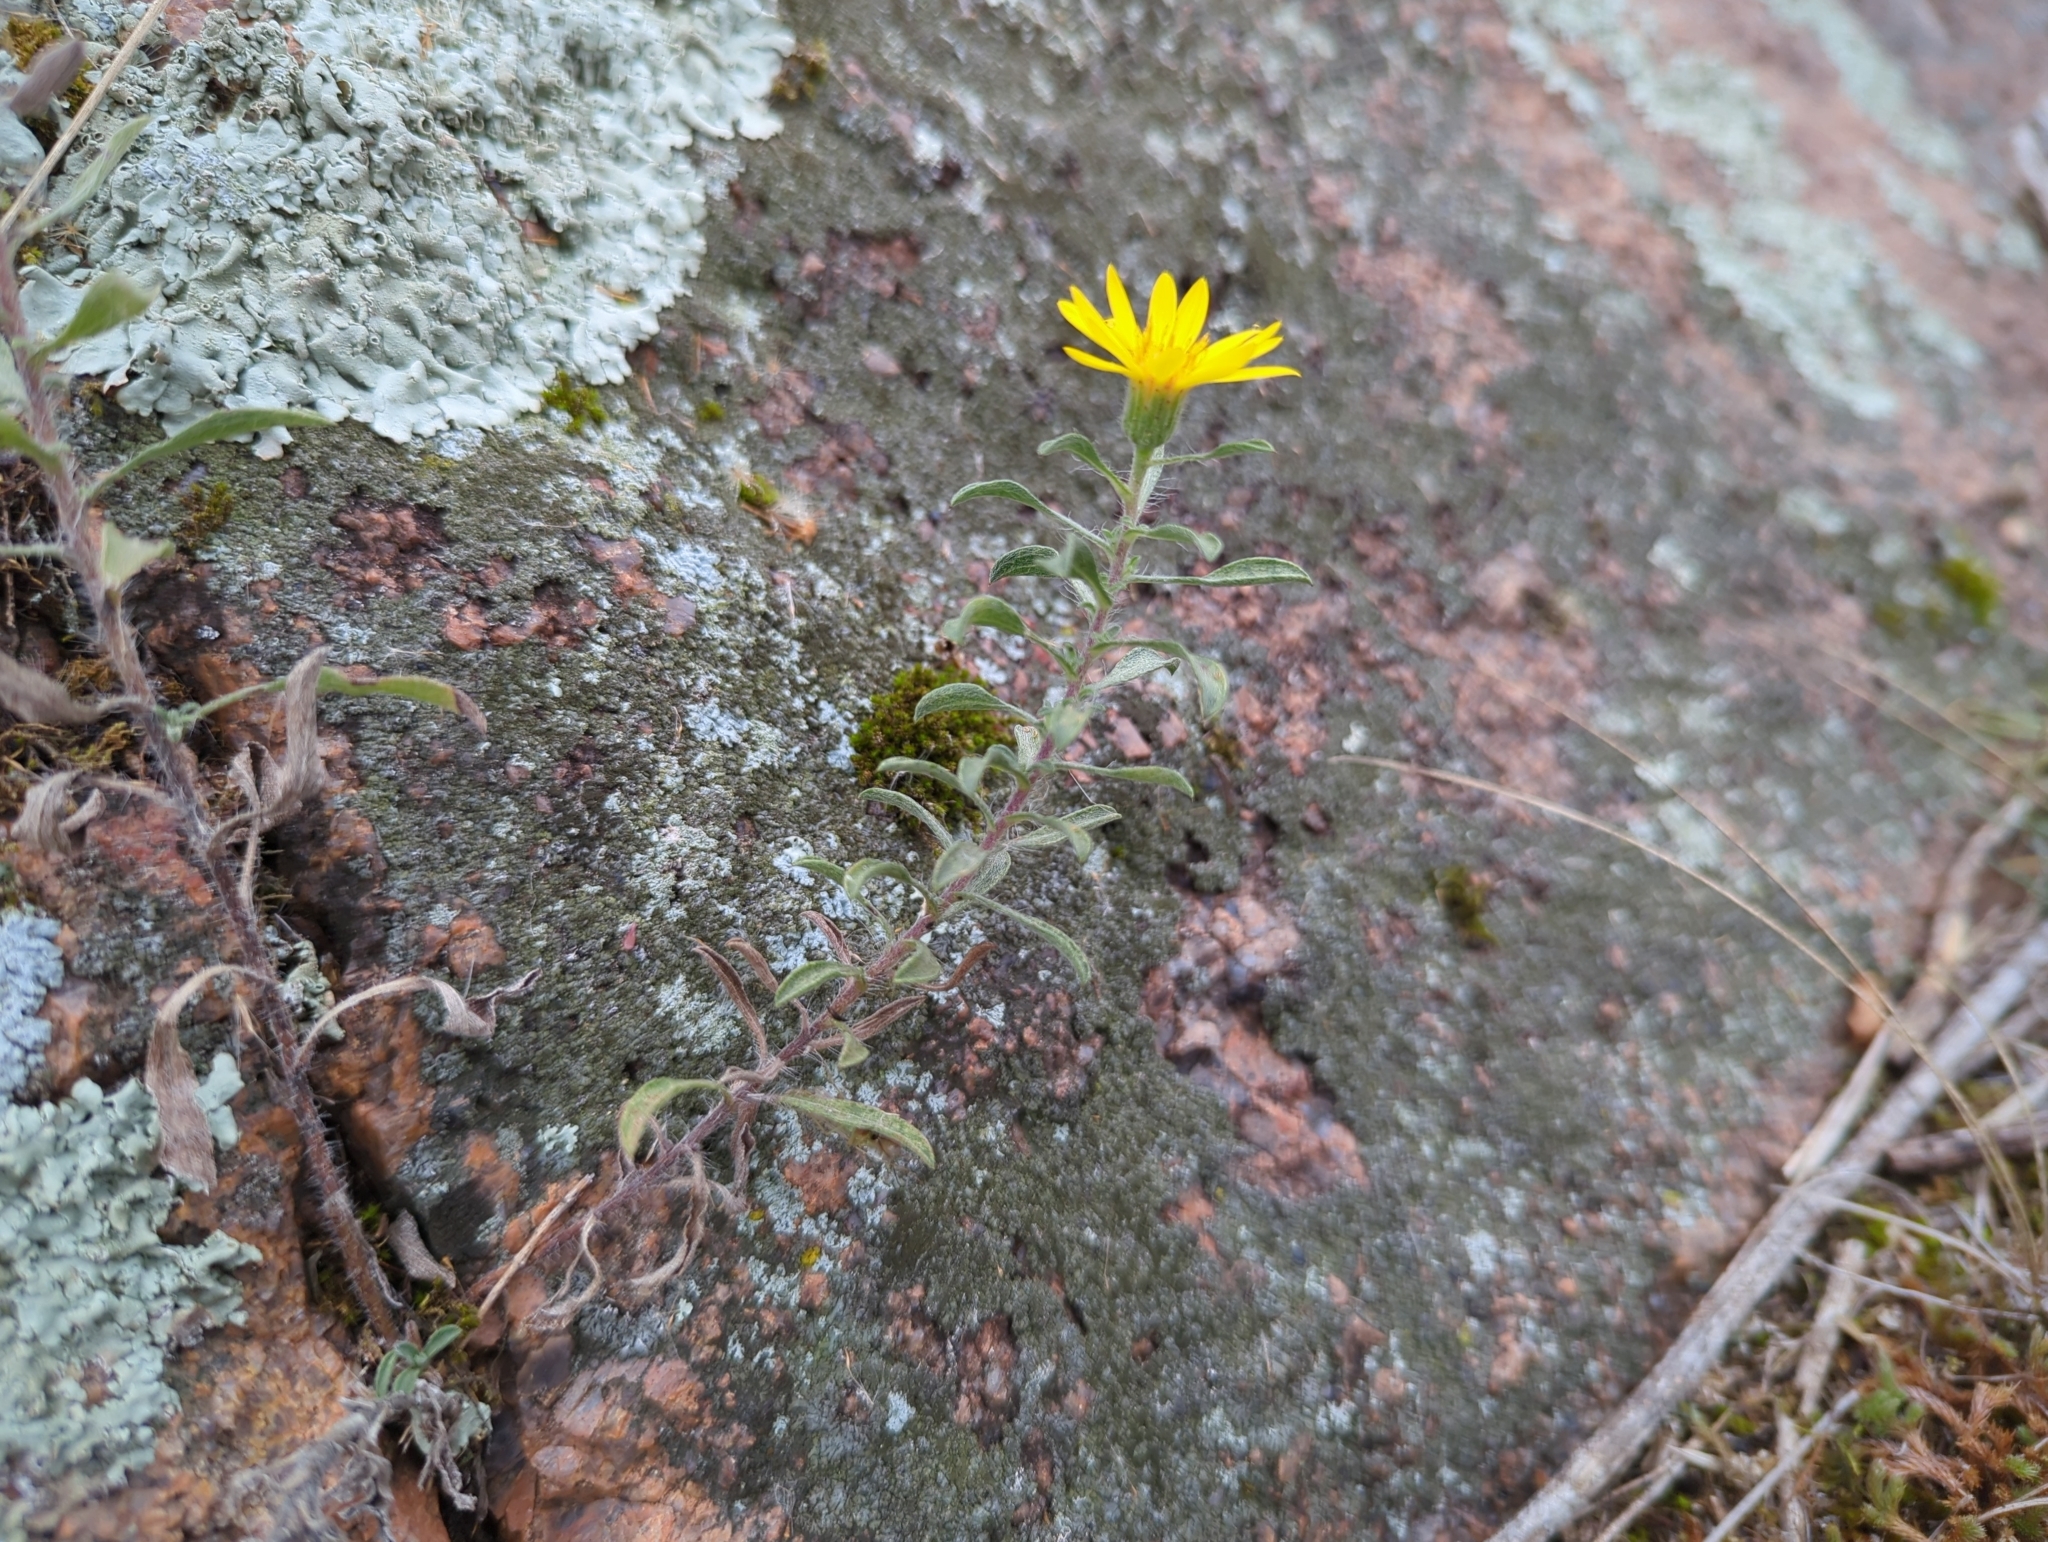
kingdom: Plantae
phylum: Tracheophyta
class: Magnoliopsida
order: Asterales
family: Asteraceae
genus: Heterotheca
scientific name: Heterotheca villosa
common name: Hairy false goldenaster
